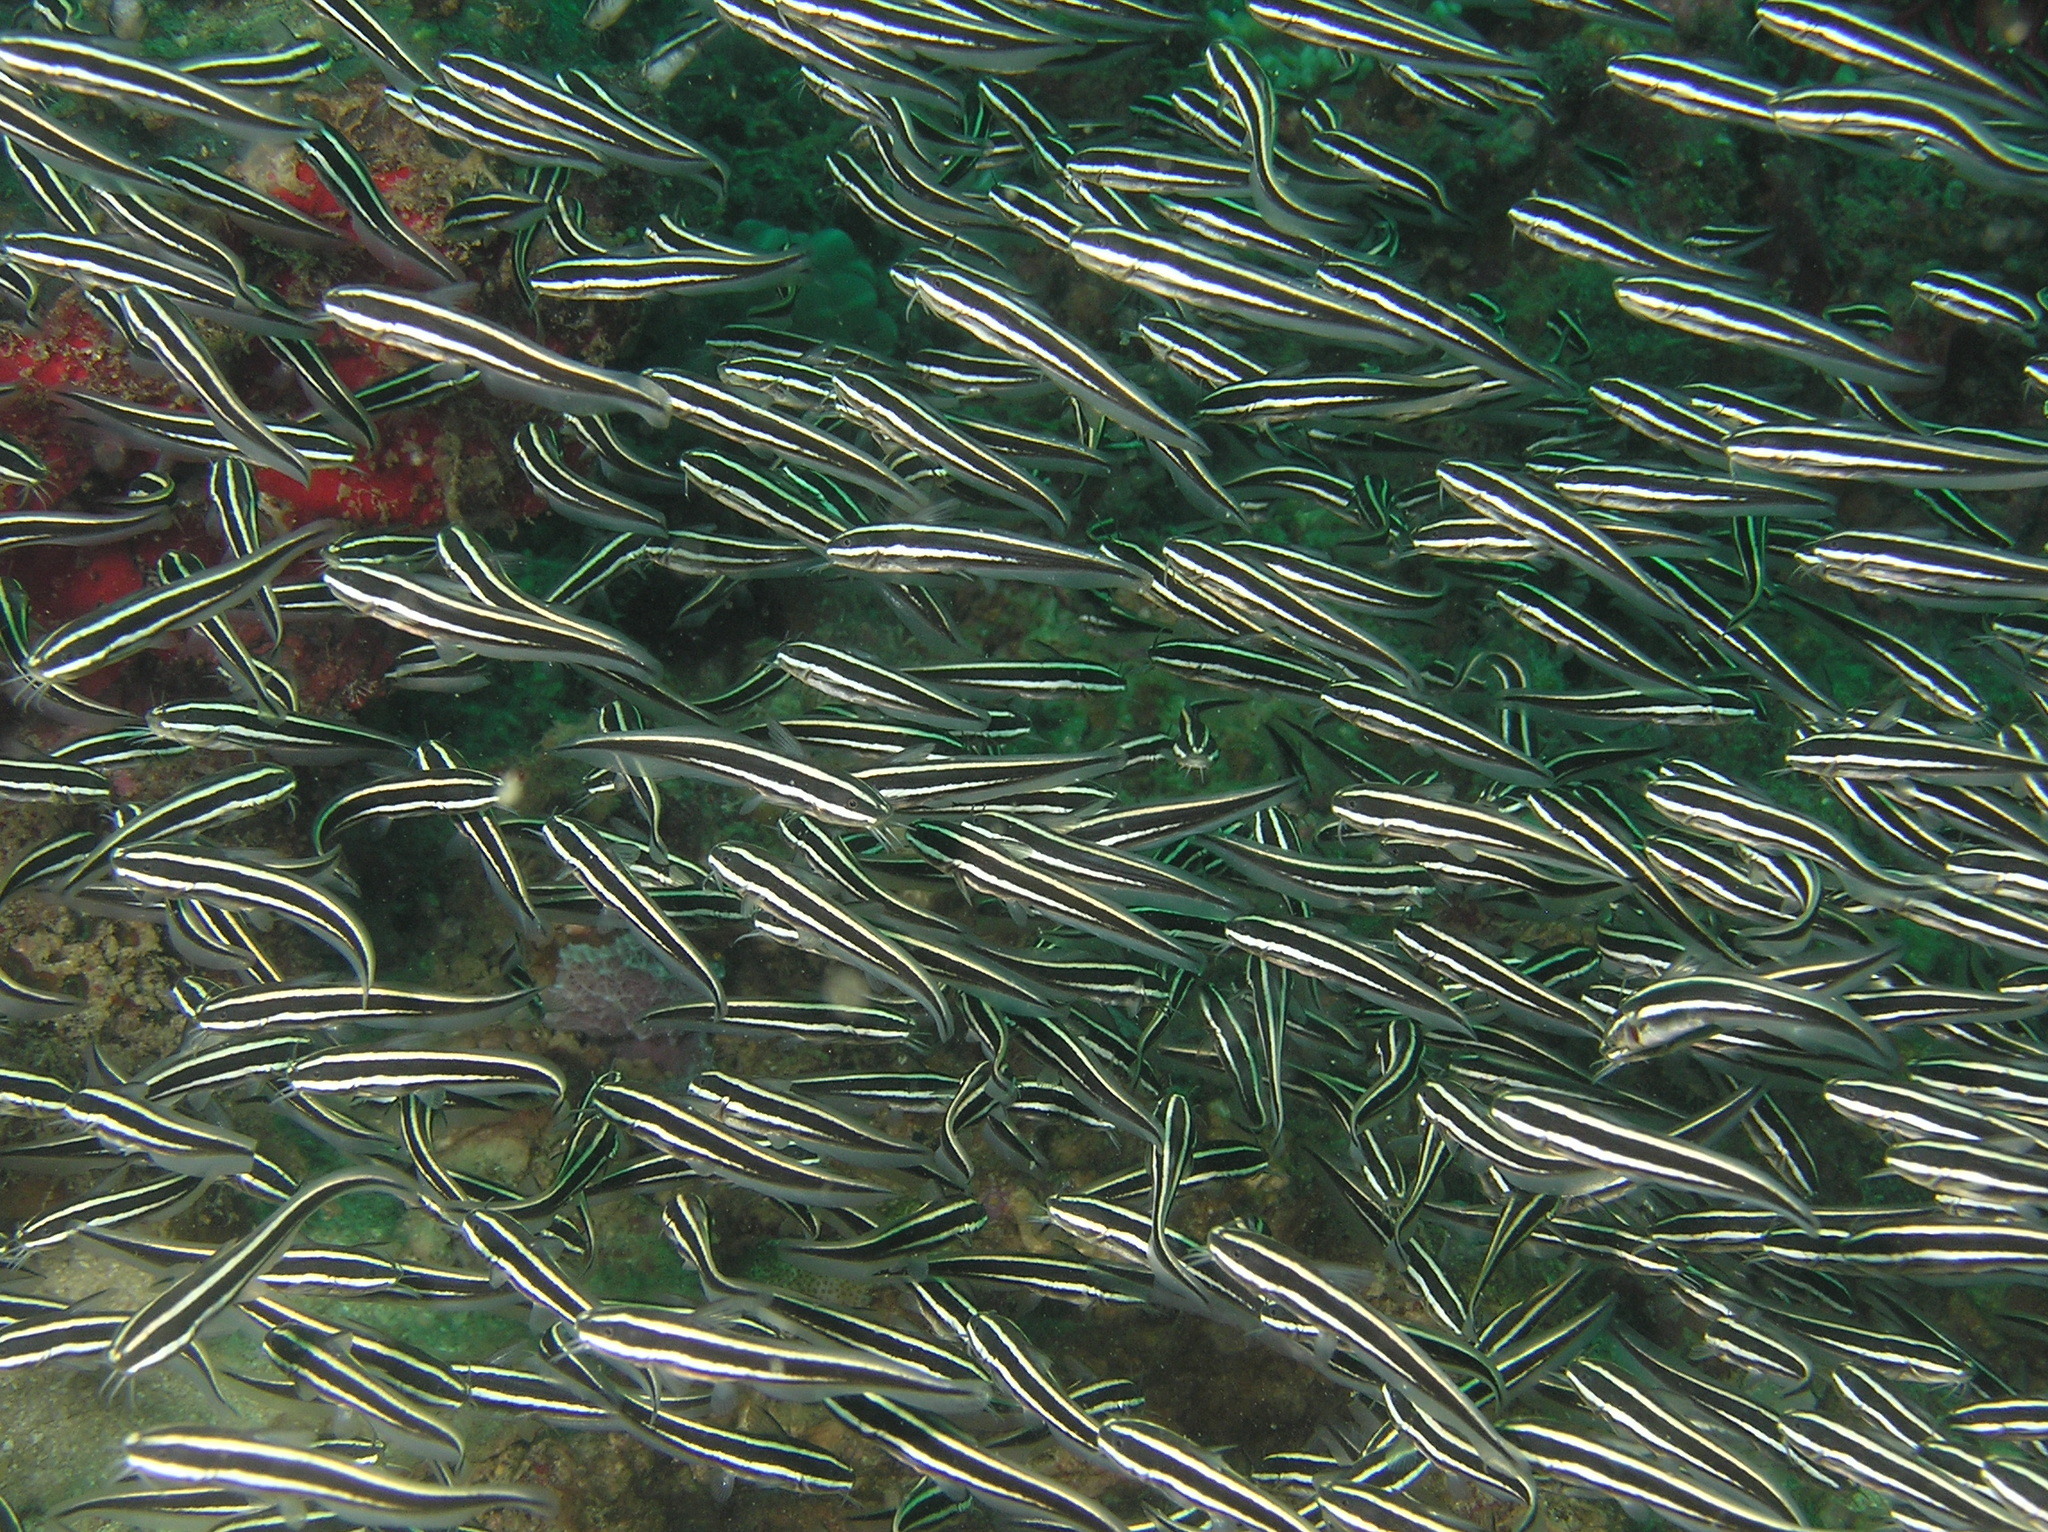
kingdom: Animalia
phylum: Chordata
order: Siluriformes
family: Plotosidae
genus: Plotosus
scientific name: Plotosus lineatus
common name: Striped eel catfish
